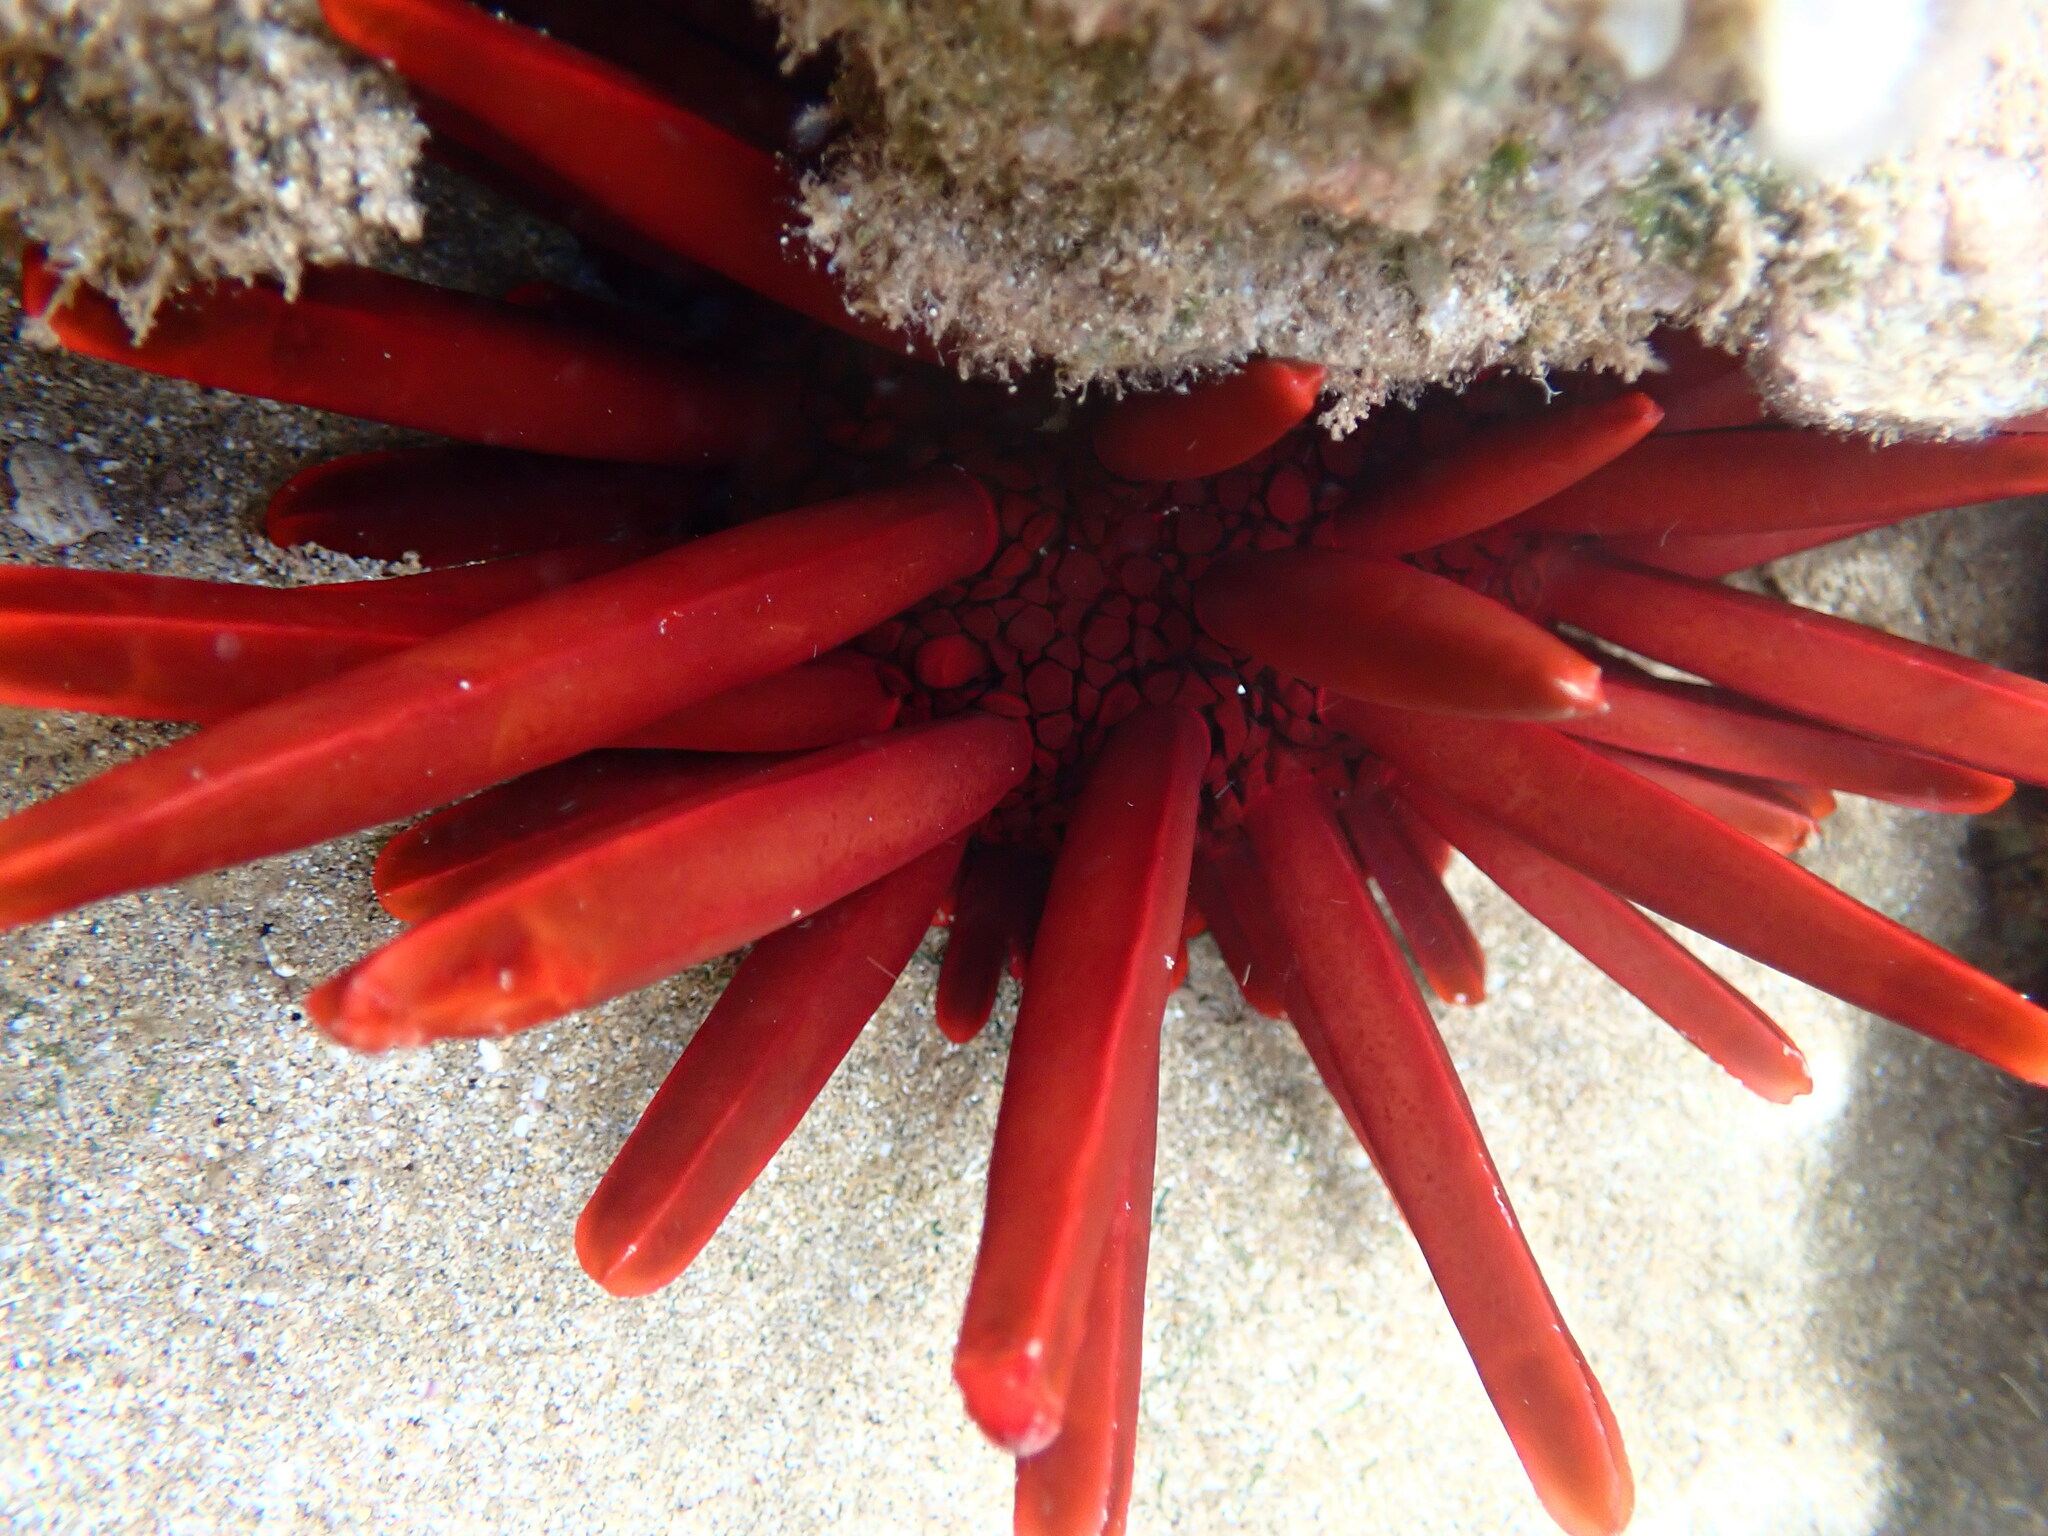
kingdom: Animalia
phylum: Echinodermata
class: Echinoidea
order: Camarodonta
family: Echinometridae
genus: Heterocentrotus
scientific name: Heterocentrotus mamillatus
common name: Slate pencil urchin
